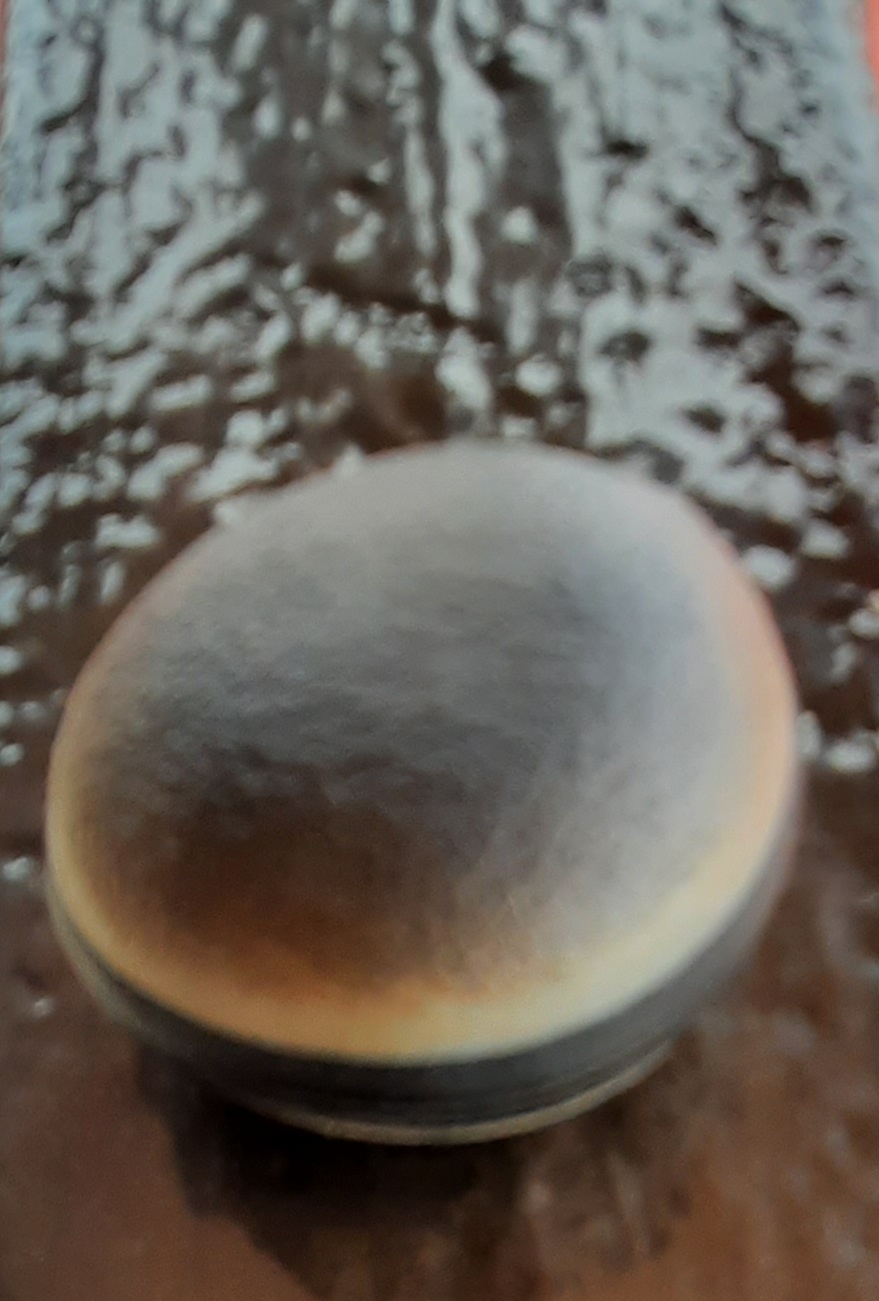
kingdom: Plantae
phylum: Tracheophyta
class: Magnoliopsida
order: Fabales
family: Fabaceae
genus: Mucuna
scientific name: Mucuna urens
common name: Red hamburger bean
